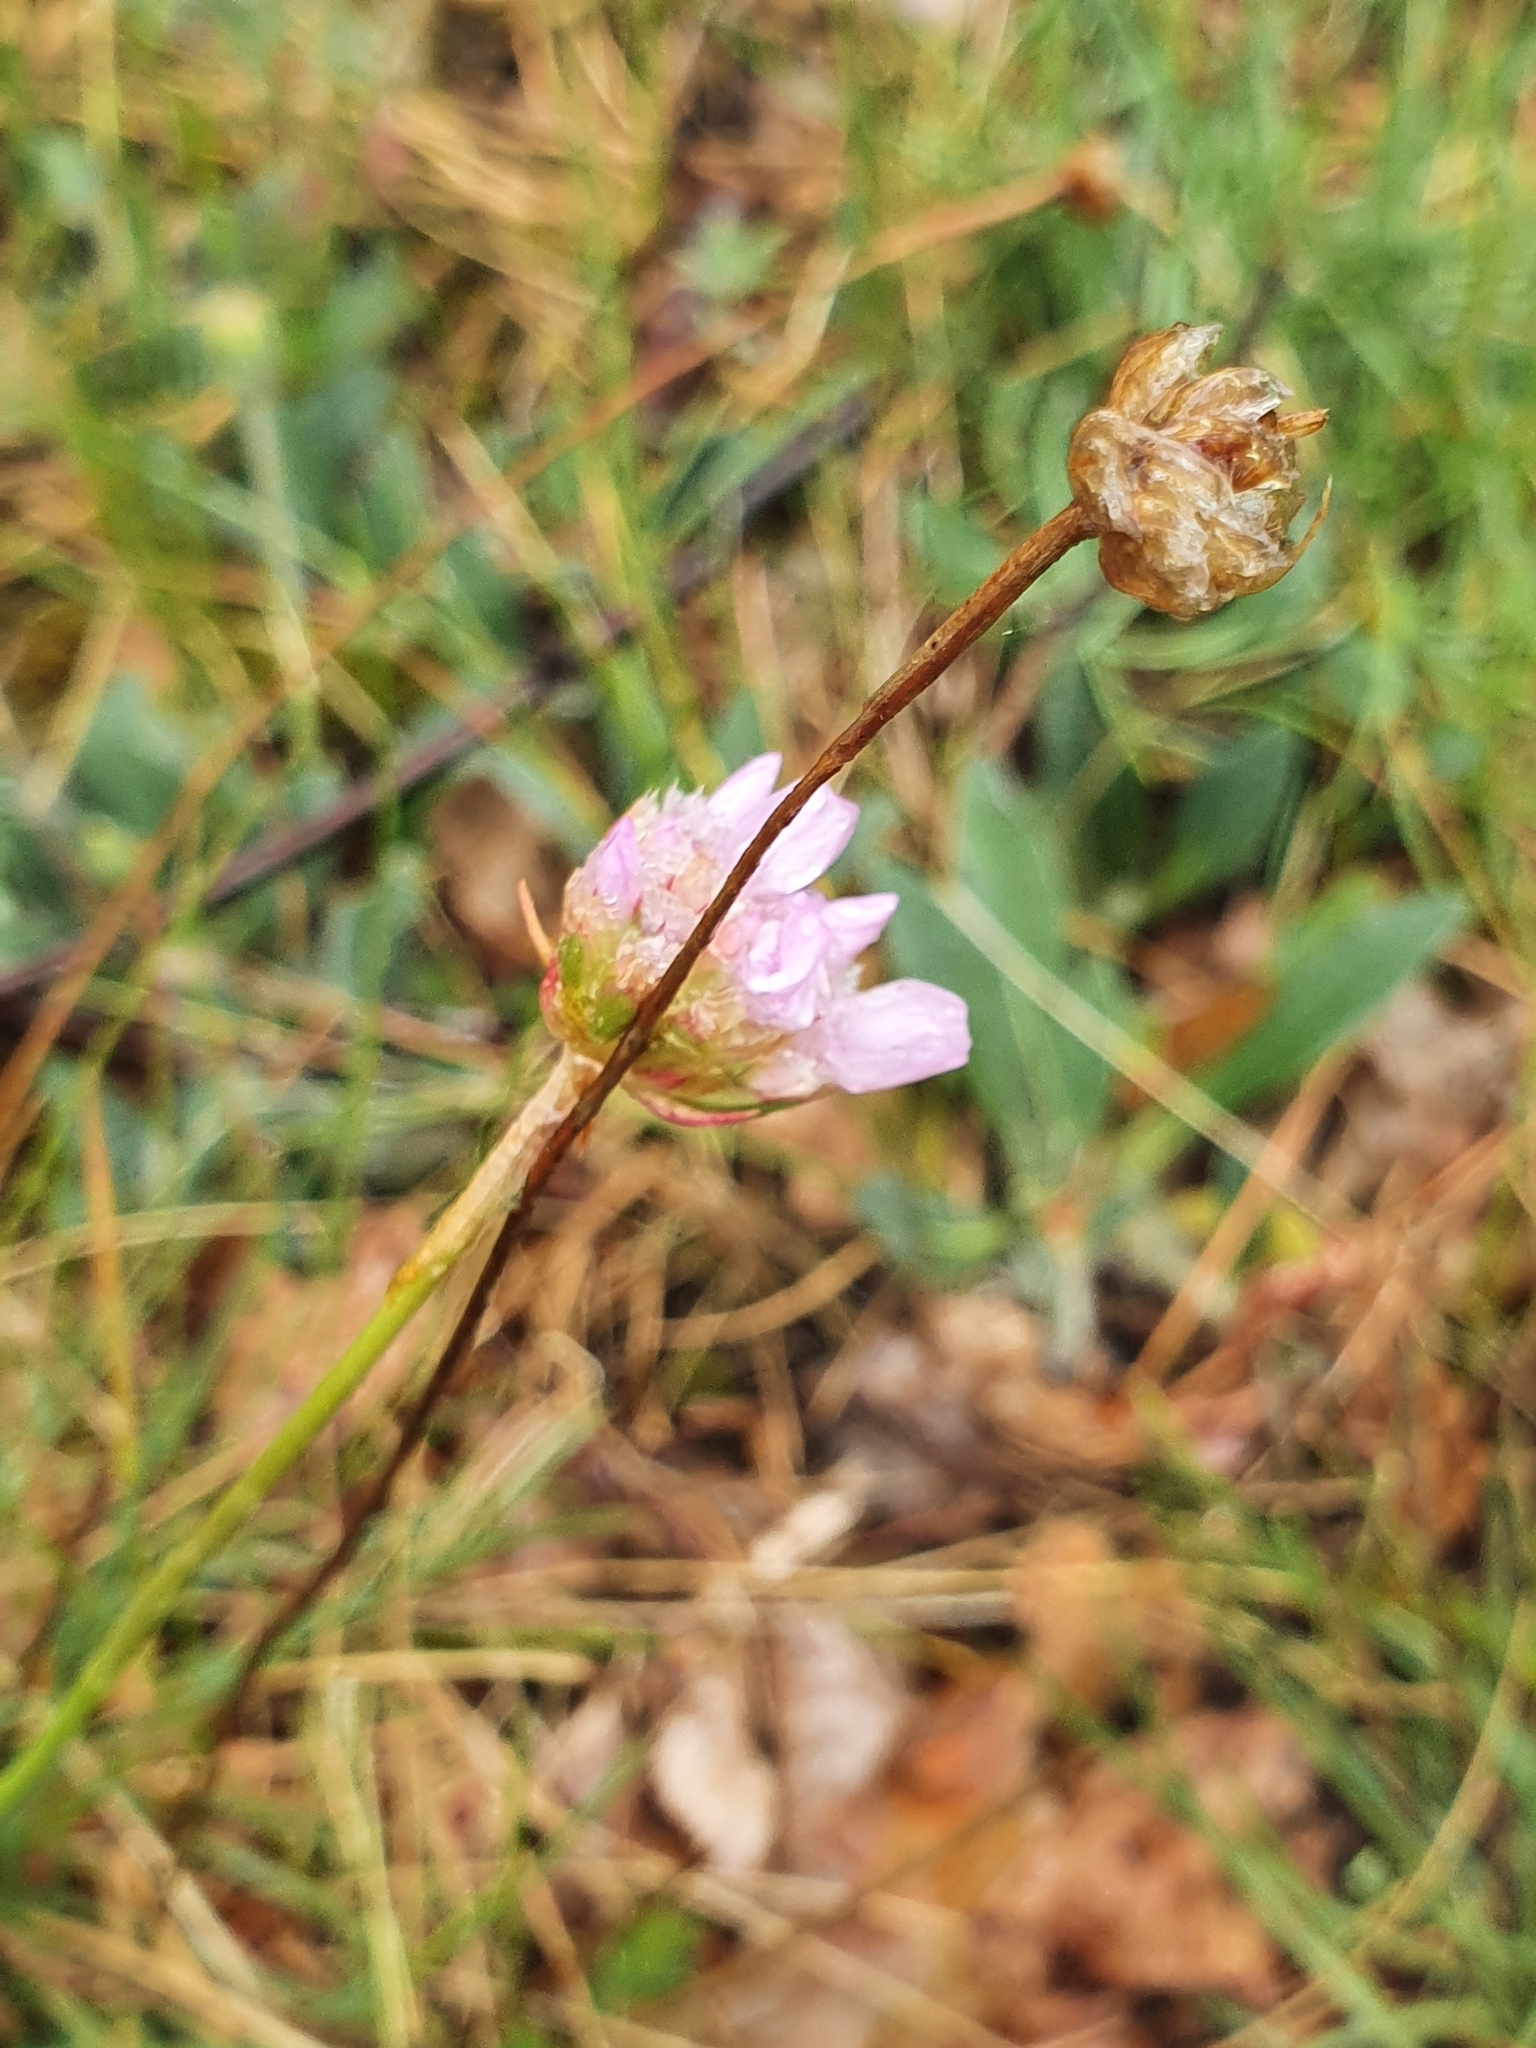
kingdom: Plantae
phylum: Tracheophyta
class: Magnoliopsida
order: Caryophyllales
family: Plumbaginaceae
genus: Armeria
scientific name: Armeria maritima
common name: Thrift
